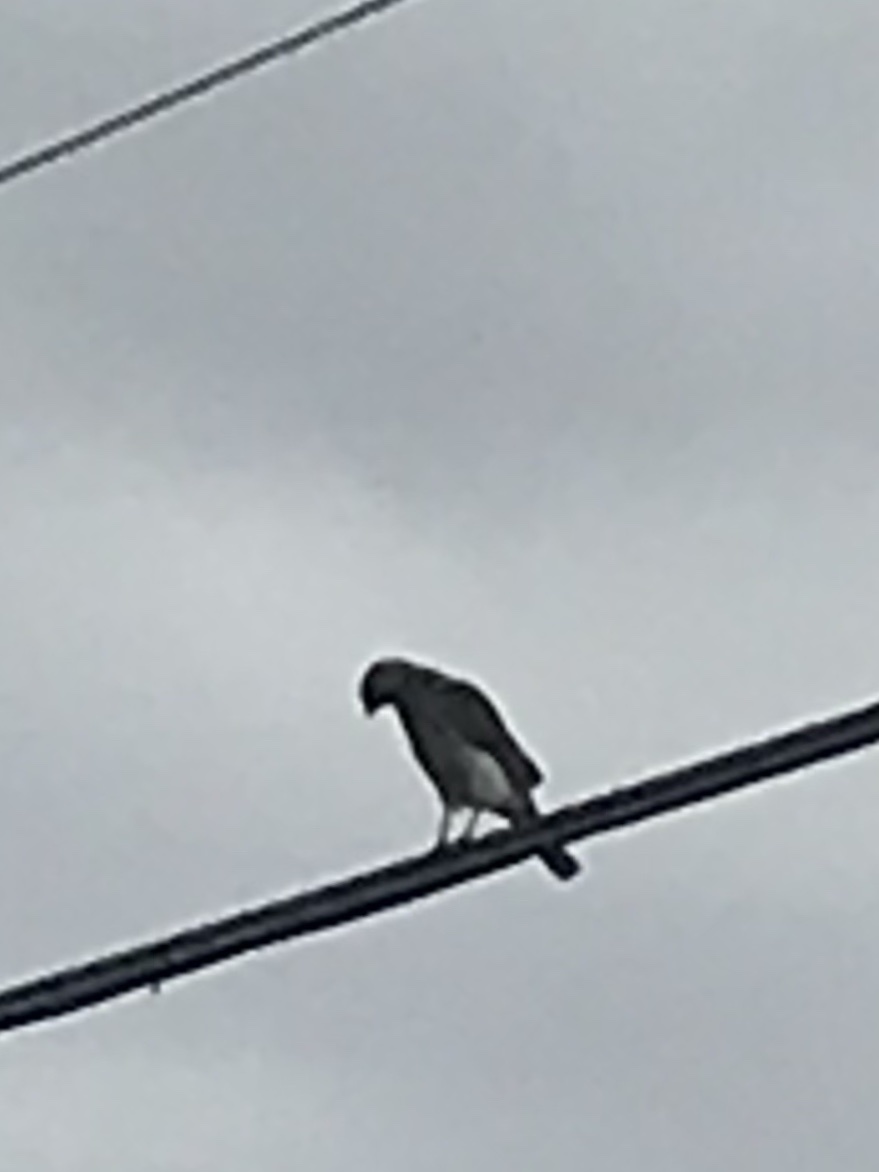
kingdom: Animalia
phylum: Chordata
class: Aves
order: Accipitriformes
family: Accipitridae
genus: Buteo
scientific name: Buteo lineatus
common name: Red-shouldered hawk
